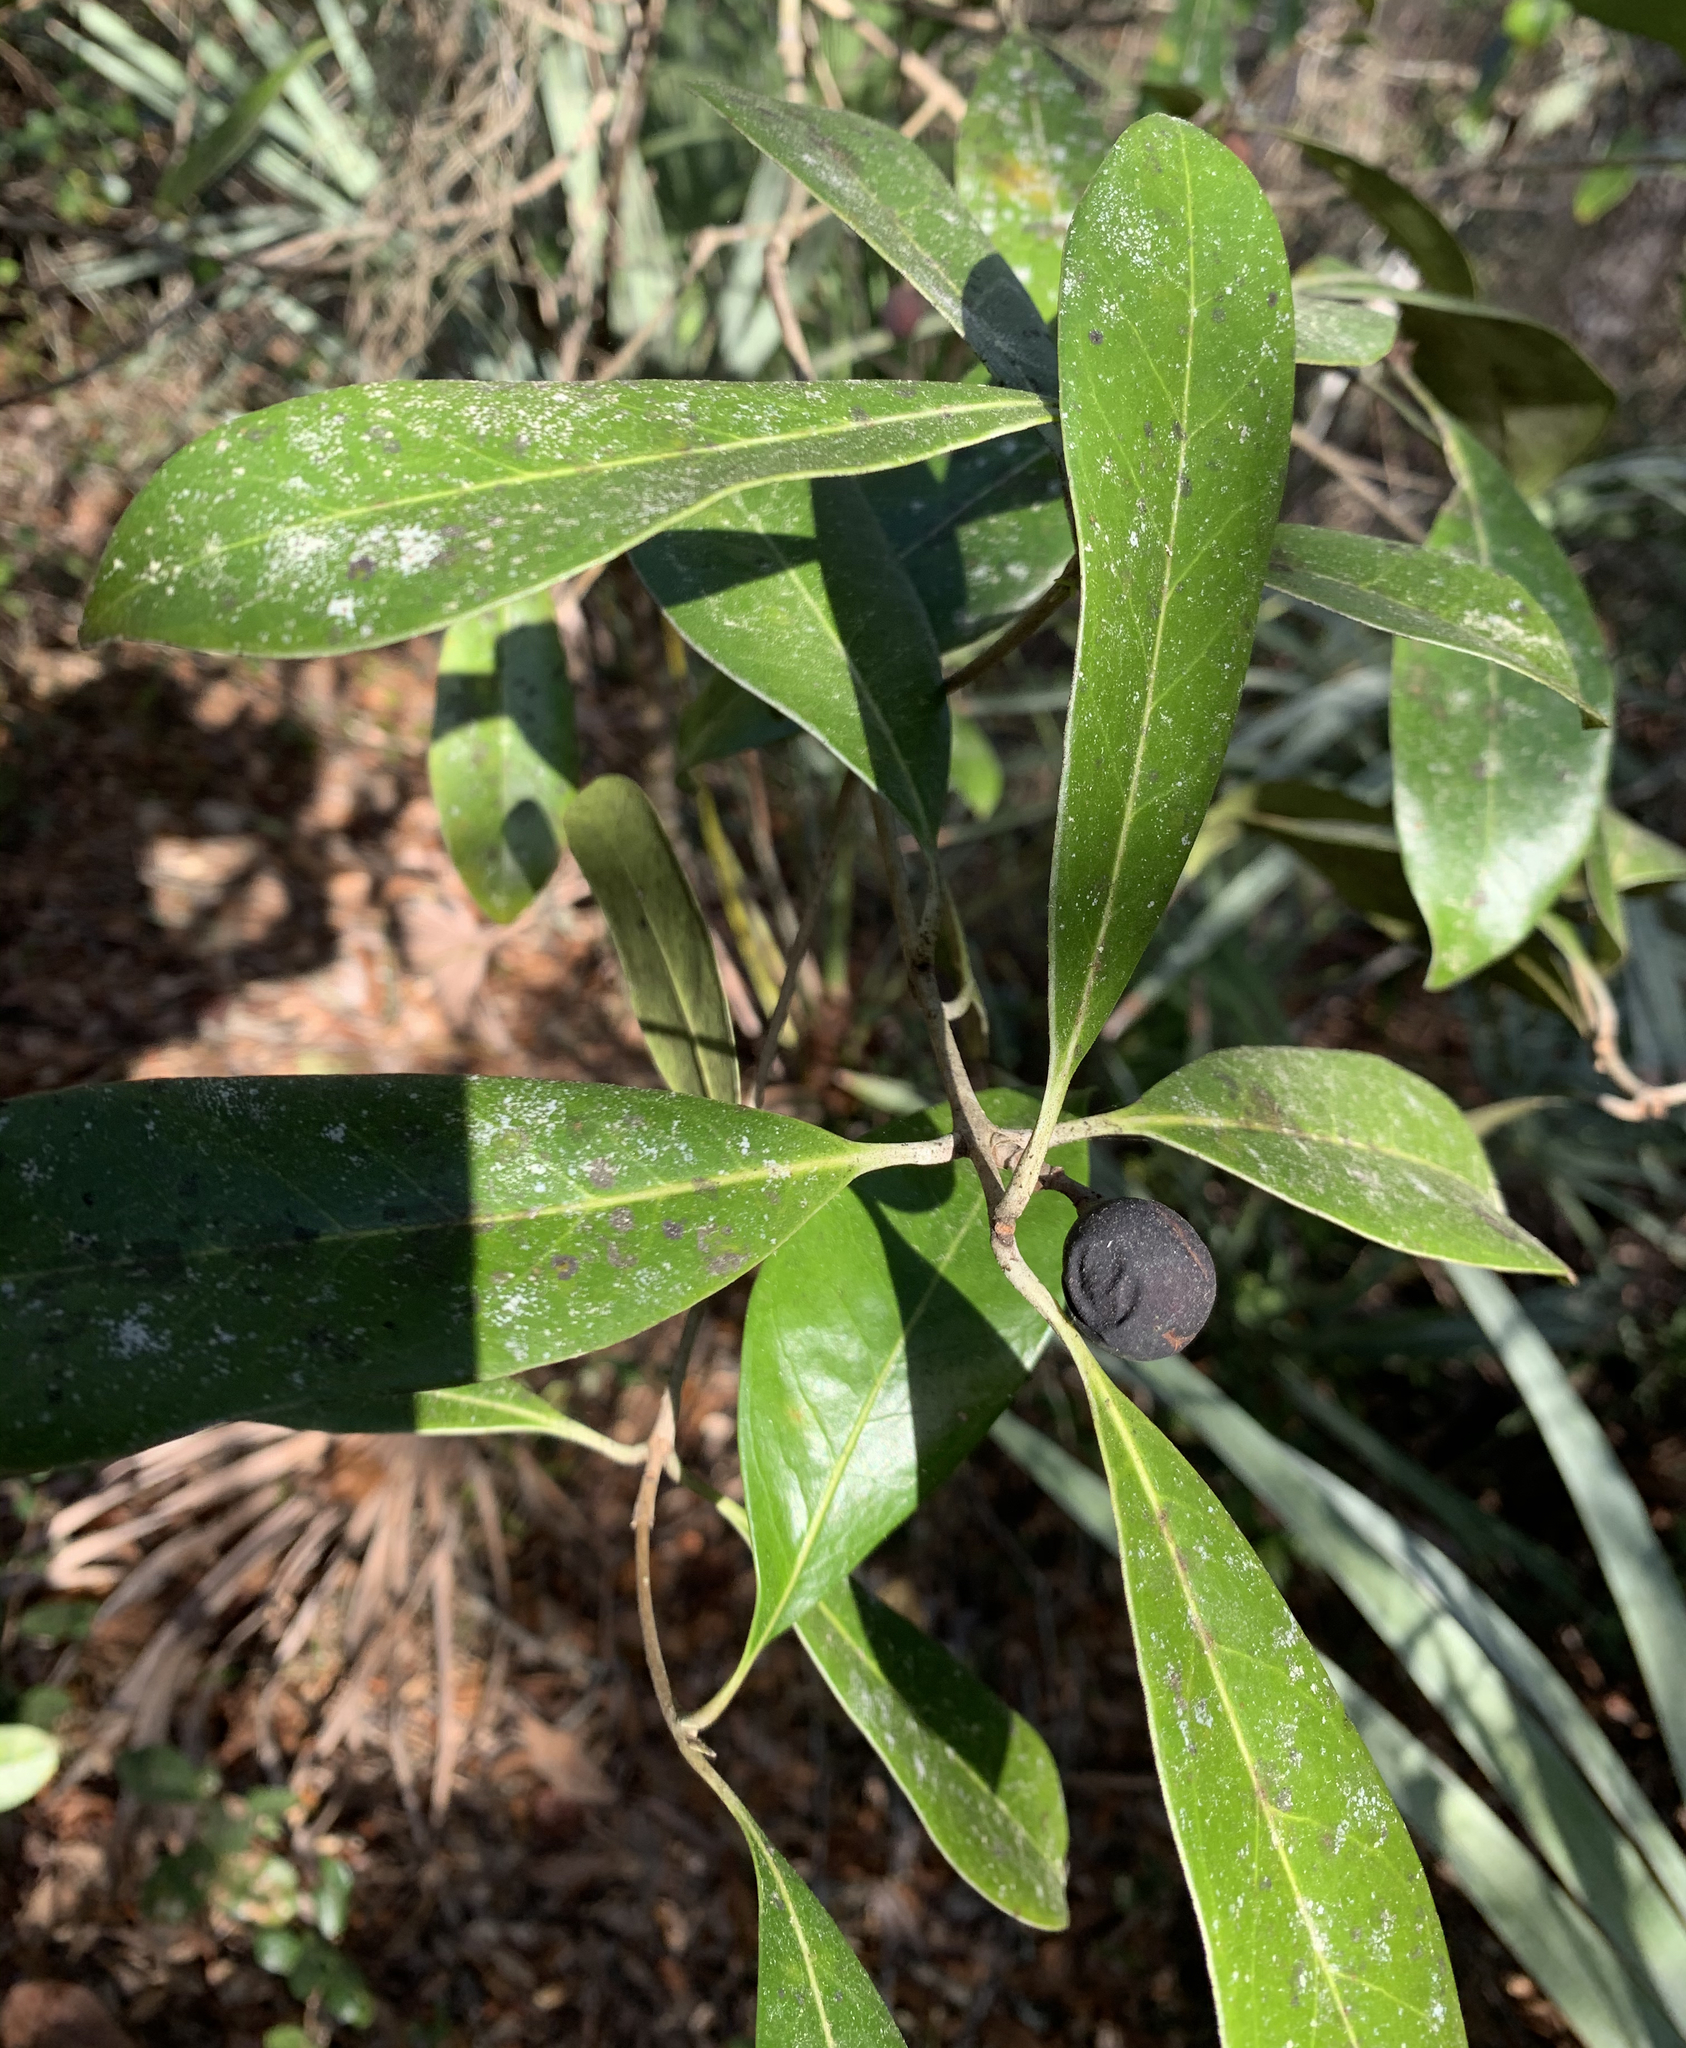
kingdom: Plantae
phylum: Tracheophyta
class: Magnoliopsida
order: Lamiales
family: Oleaceae
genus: Cartrema
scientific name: Cartrema americana
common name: Devilwood
